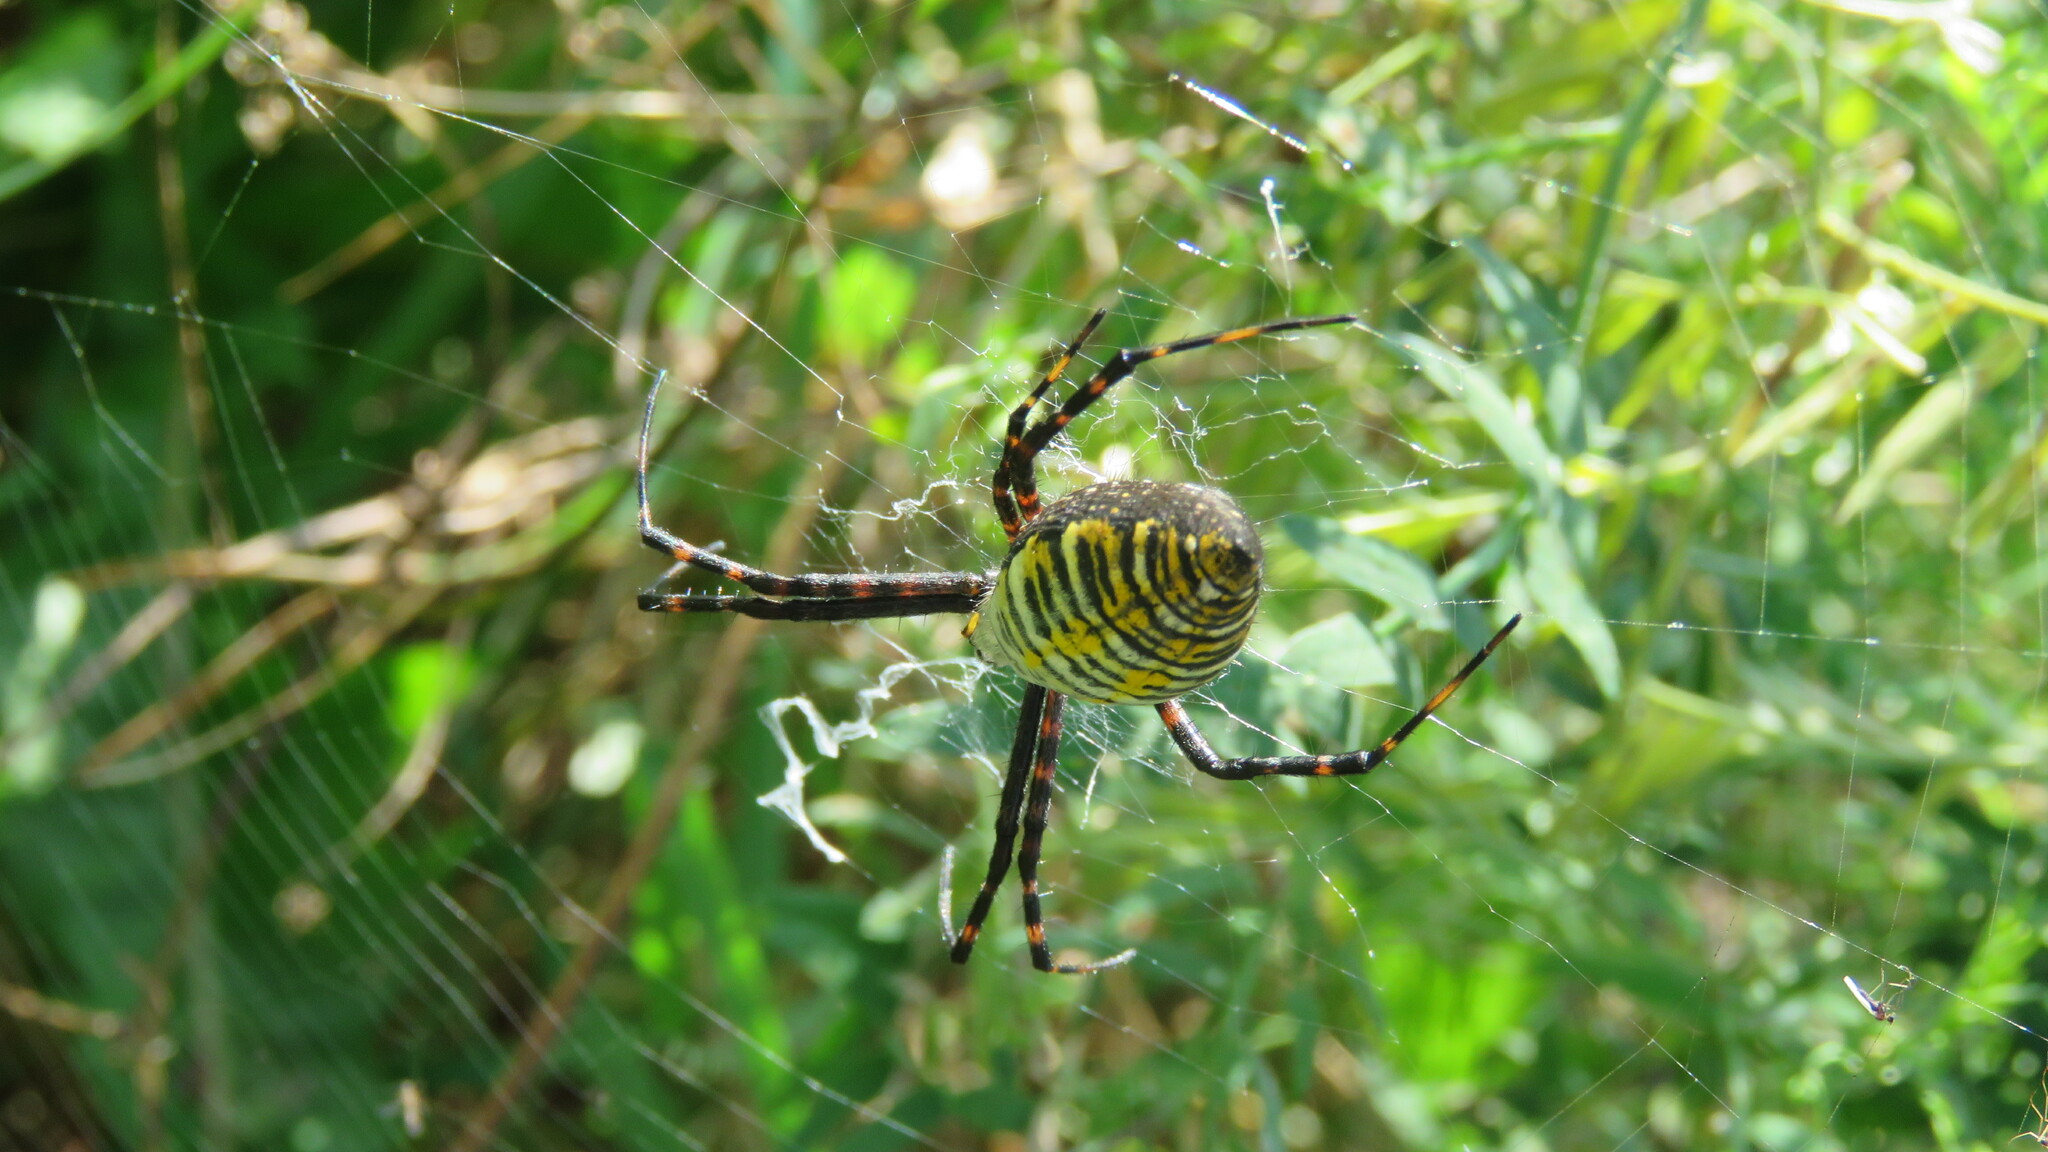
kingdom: Animalia
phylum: Arthropoda
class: Arachnida
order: Araneae
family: Araneidae
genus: Argiope
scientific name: Argiope trifasciata
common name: Banded garden spider
